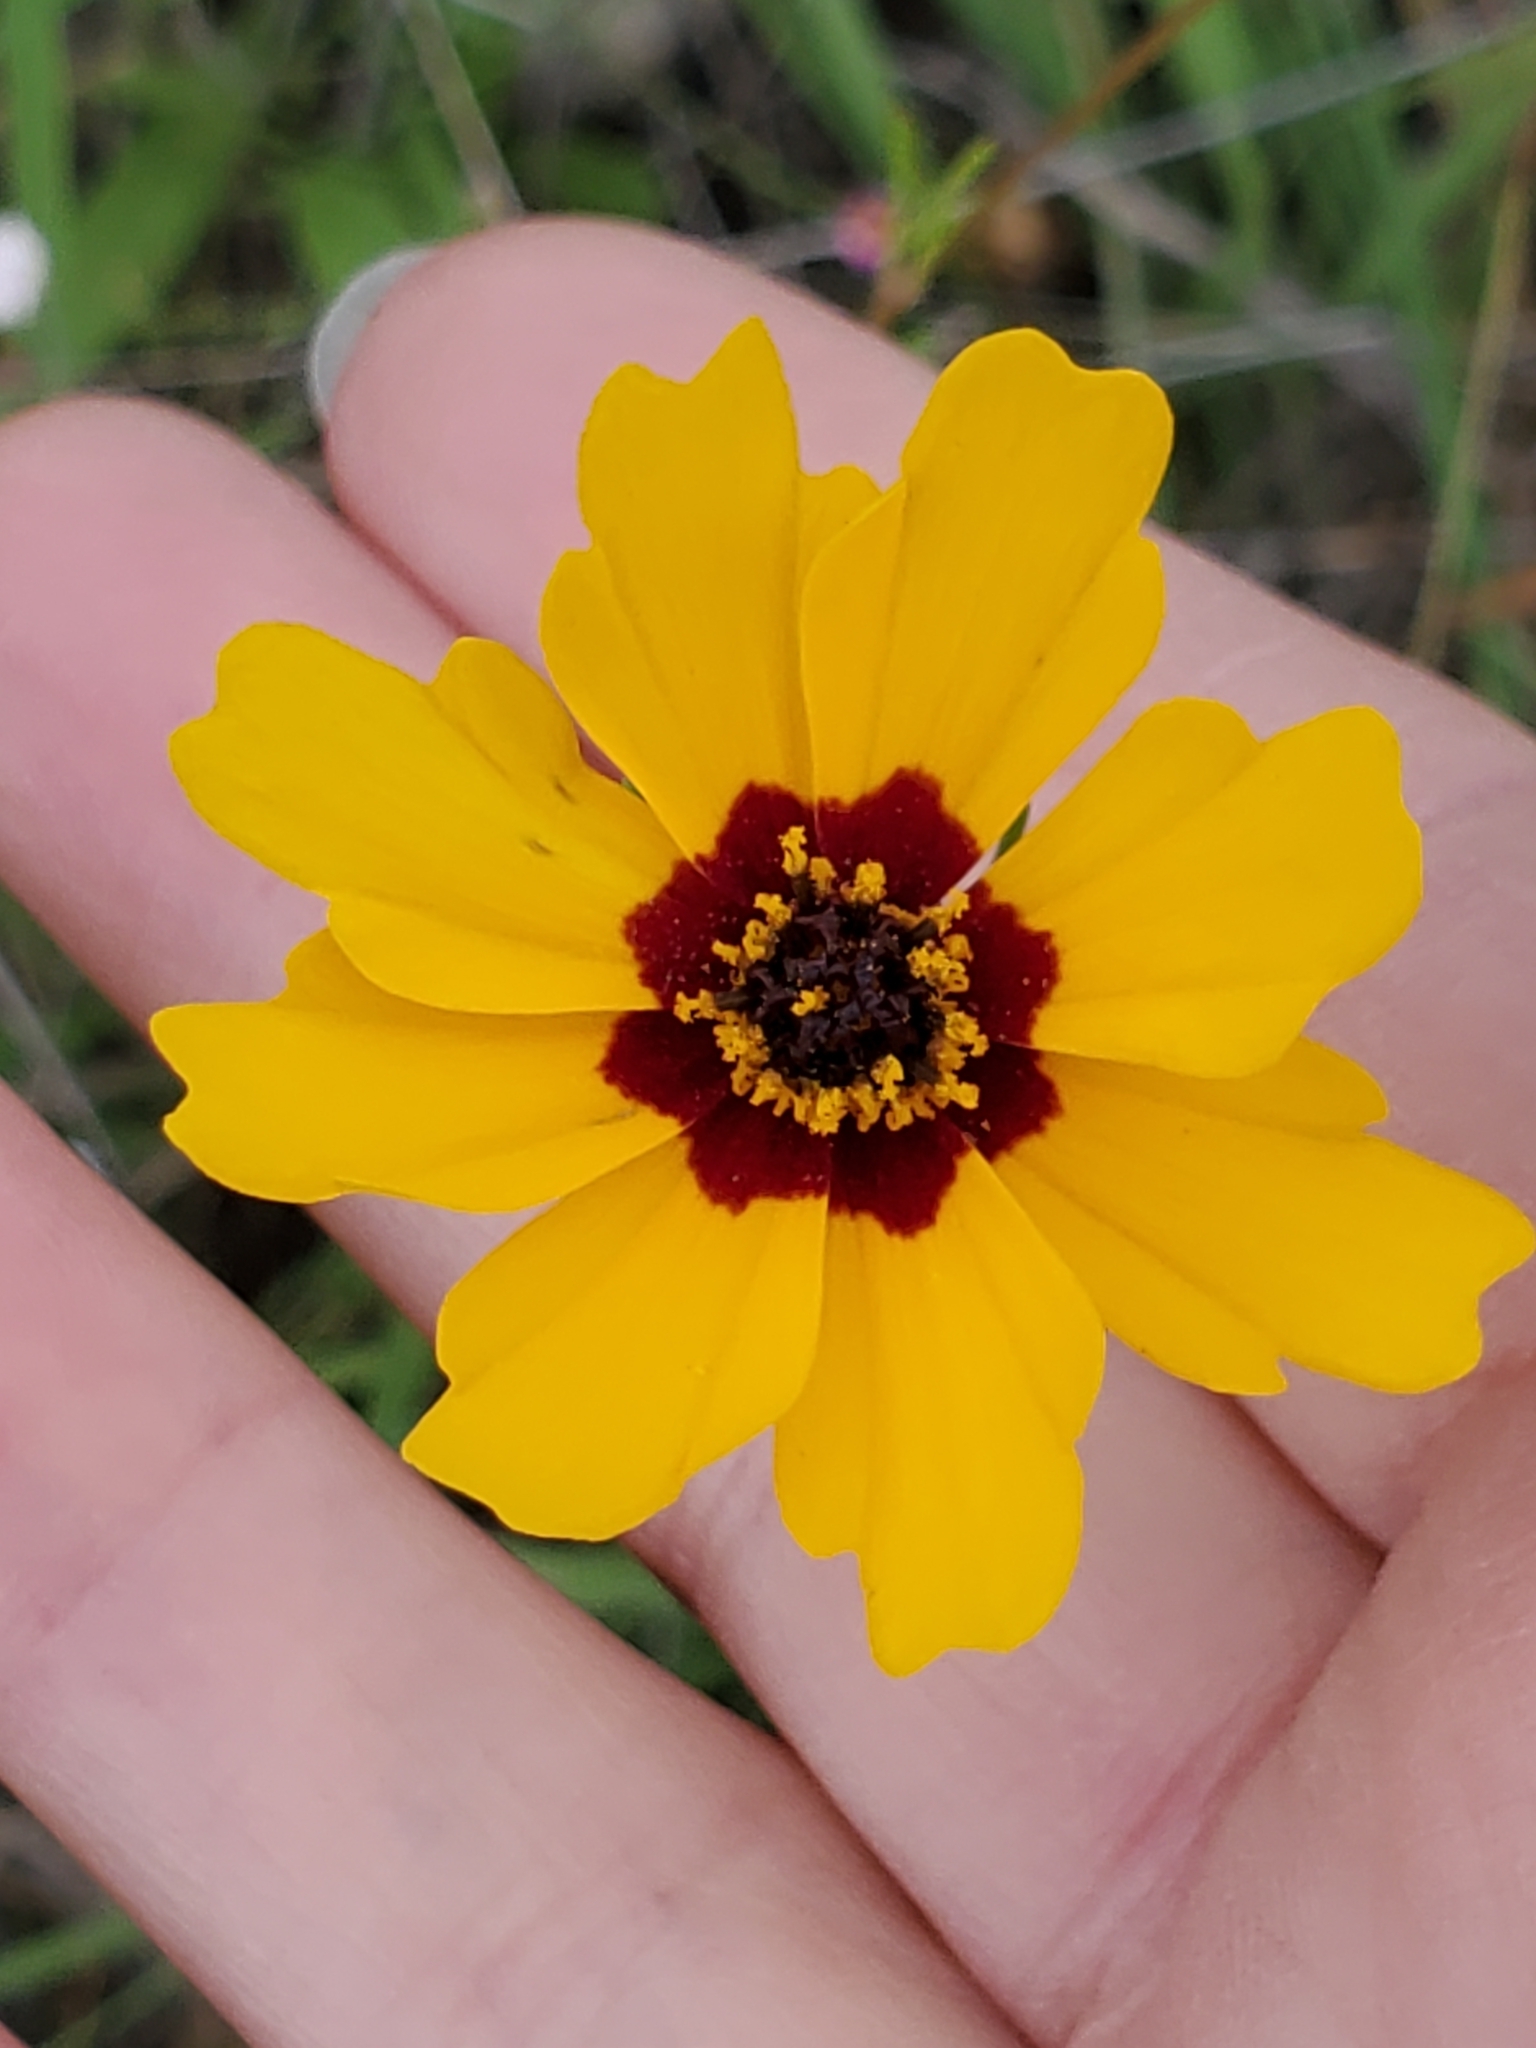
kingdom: Plantae
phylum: Tracheophyta
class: Magnoliopsida
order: Asterales
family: Asteraceae
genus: Coreopsis
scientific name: Coreopsis basalis
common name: Golden-mane coreopsis
